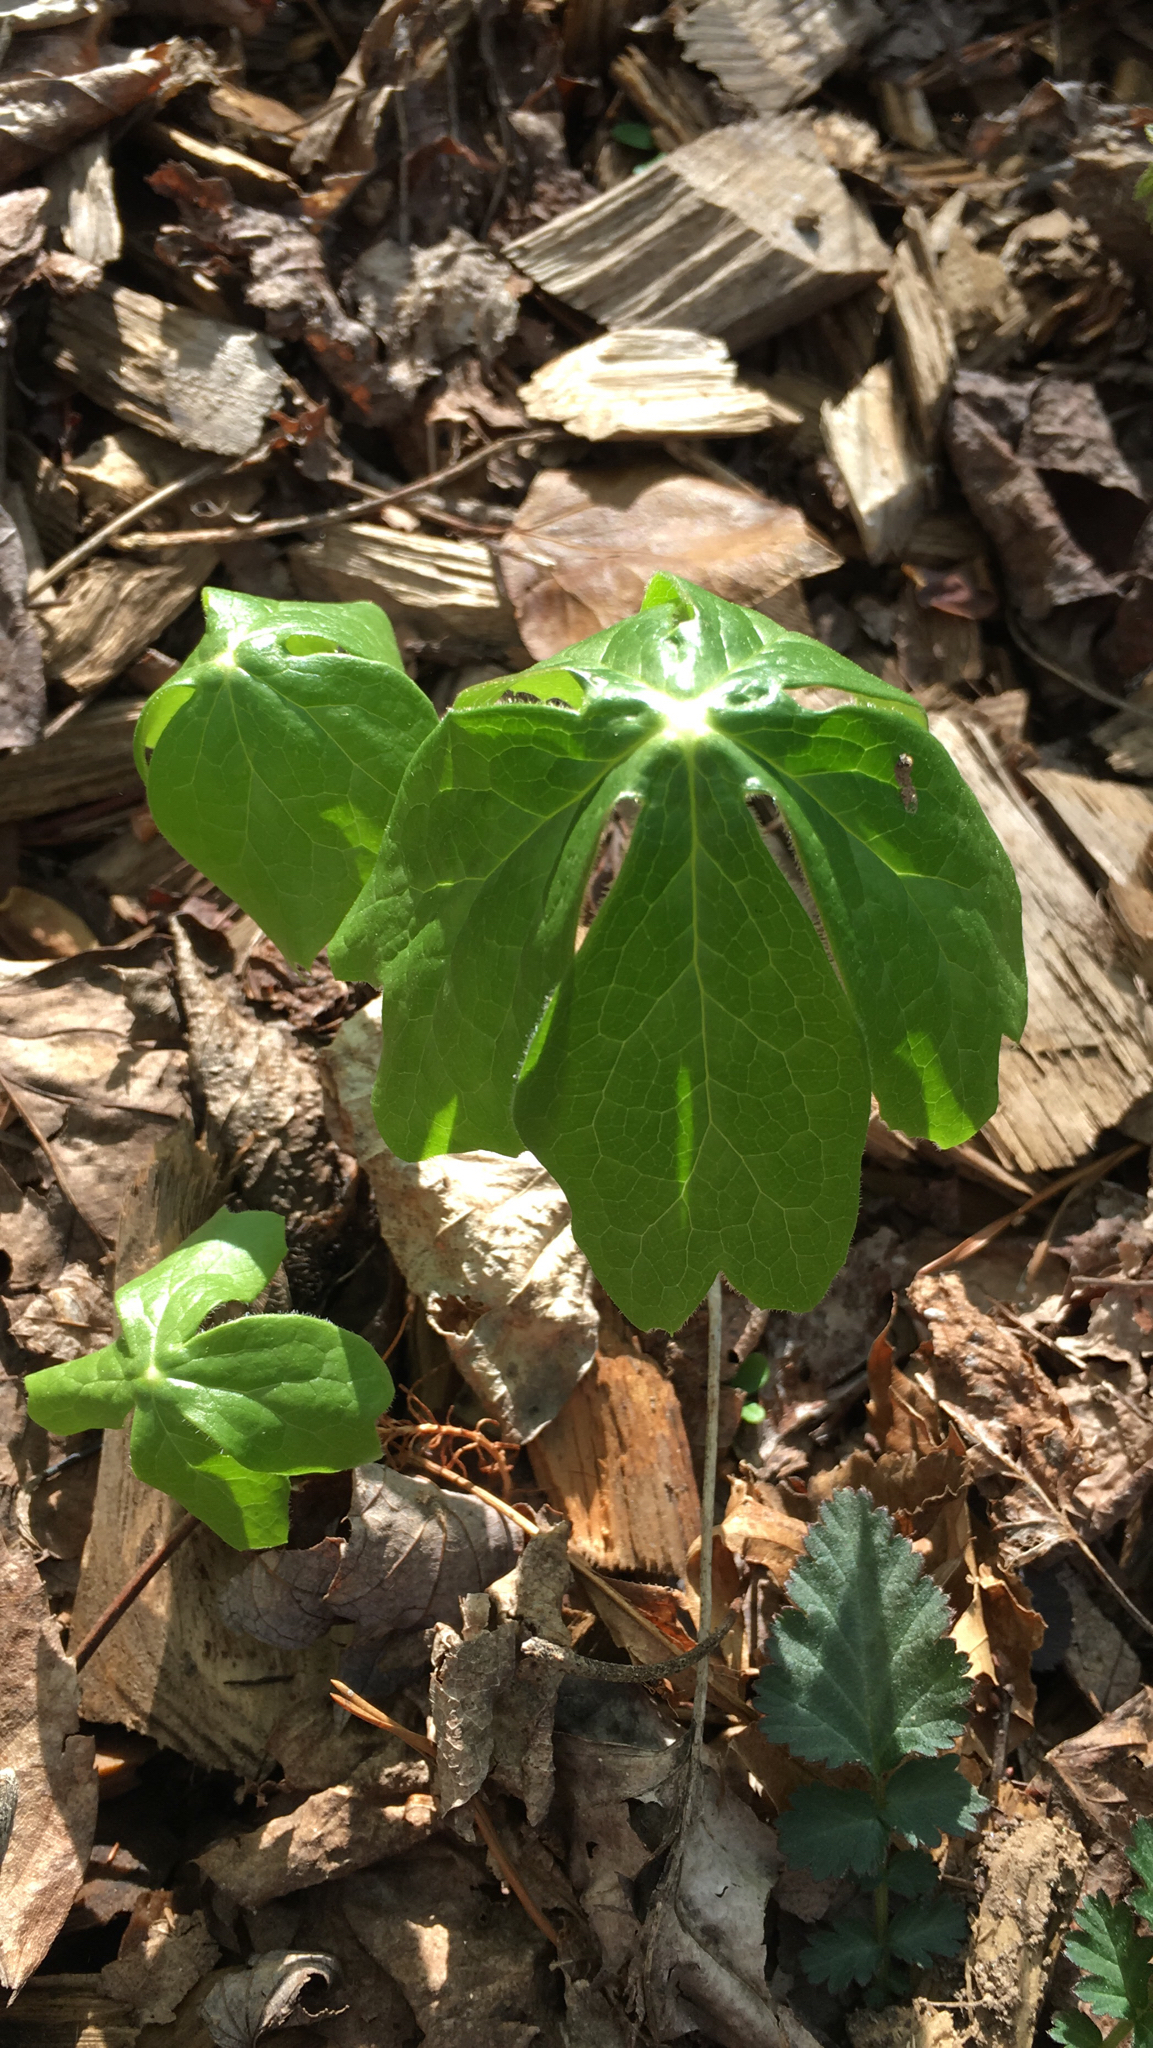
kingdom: Plantae
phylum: Tracheophyta
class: Magnoliopsida
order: Ranunculales
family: Berberidaceae
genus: Podophyllum
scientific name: Podophyllum peltatum
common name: Wild mandrake
